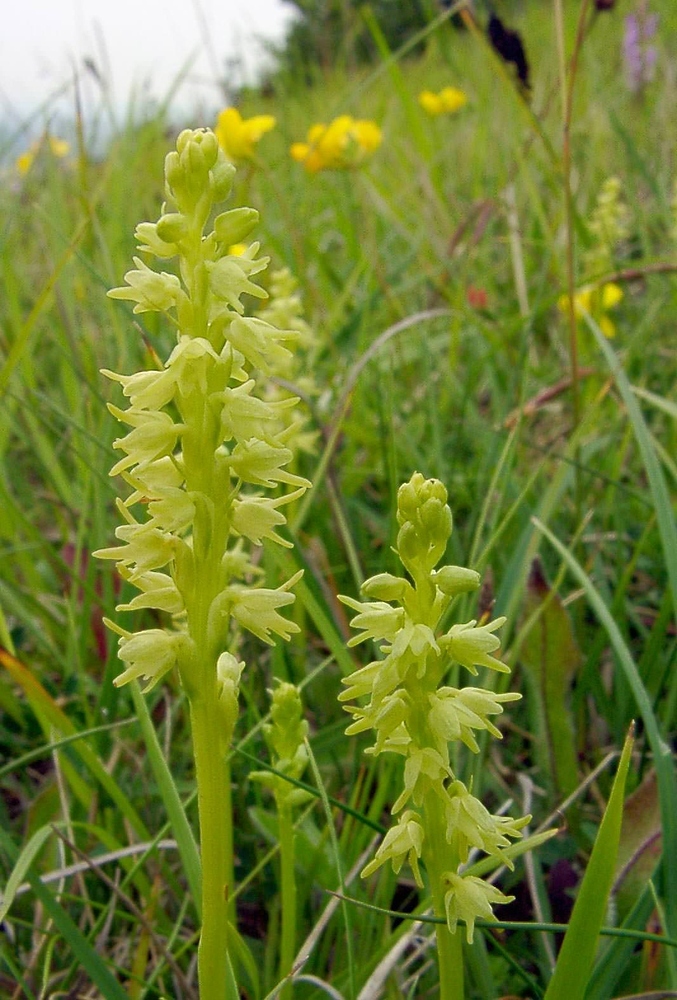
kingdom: Plantae
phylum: Tracheophyta
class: Liliopsida
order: Asparagales
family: Orchidaceae
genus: Herminium
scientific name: Herminium monorchis
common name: Musk orchid
